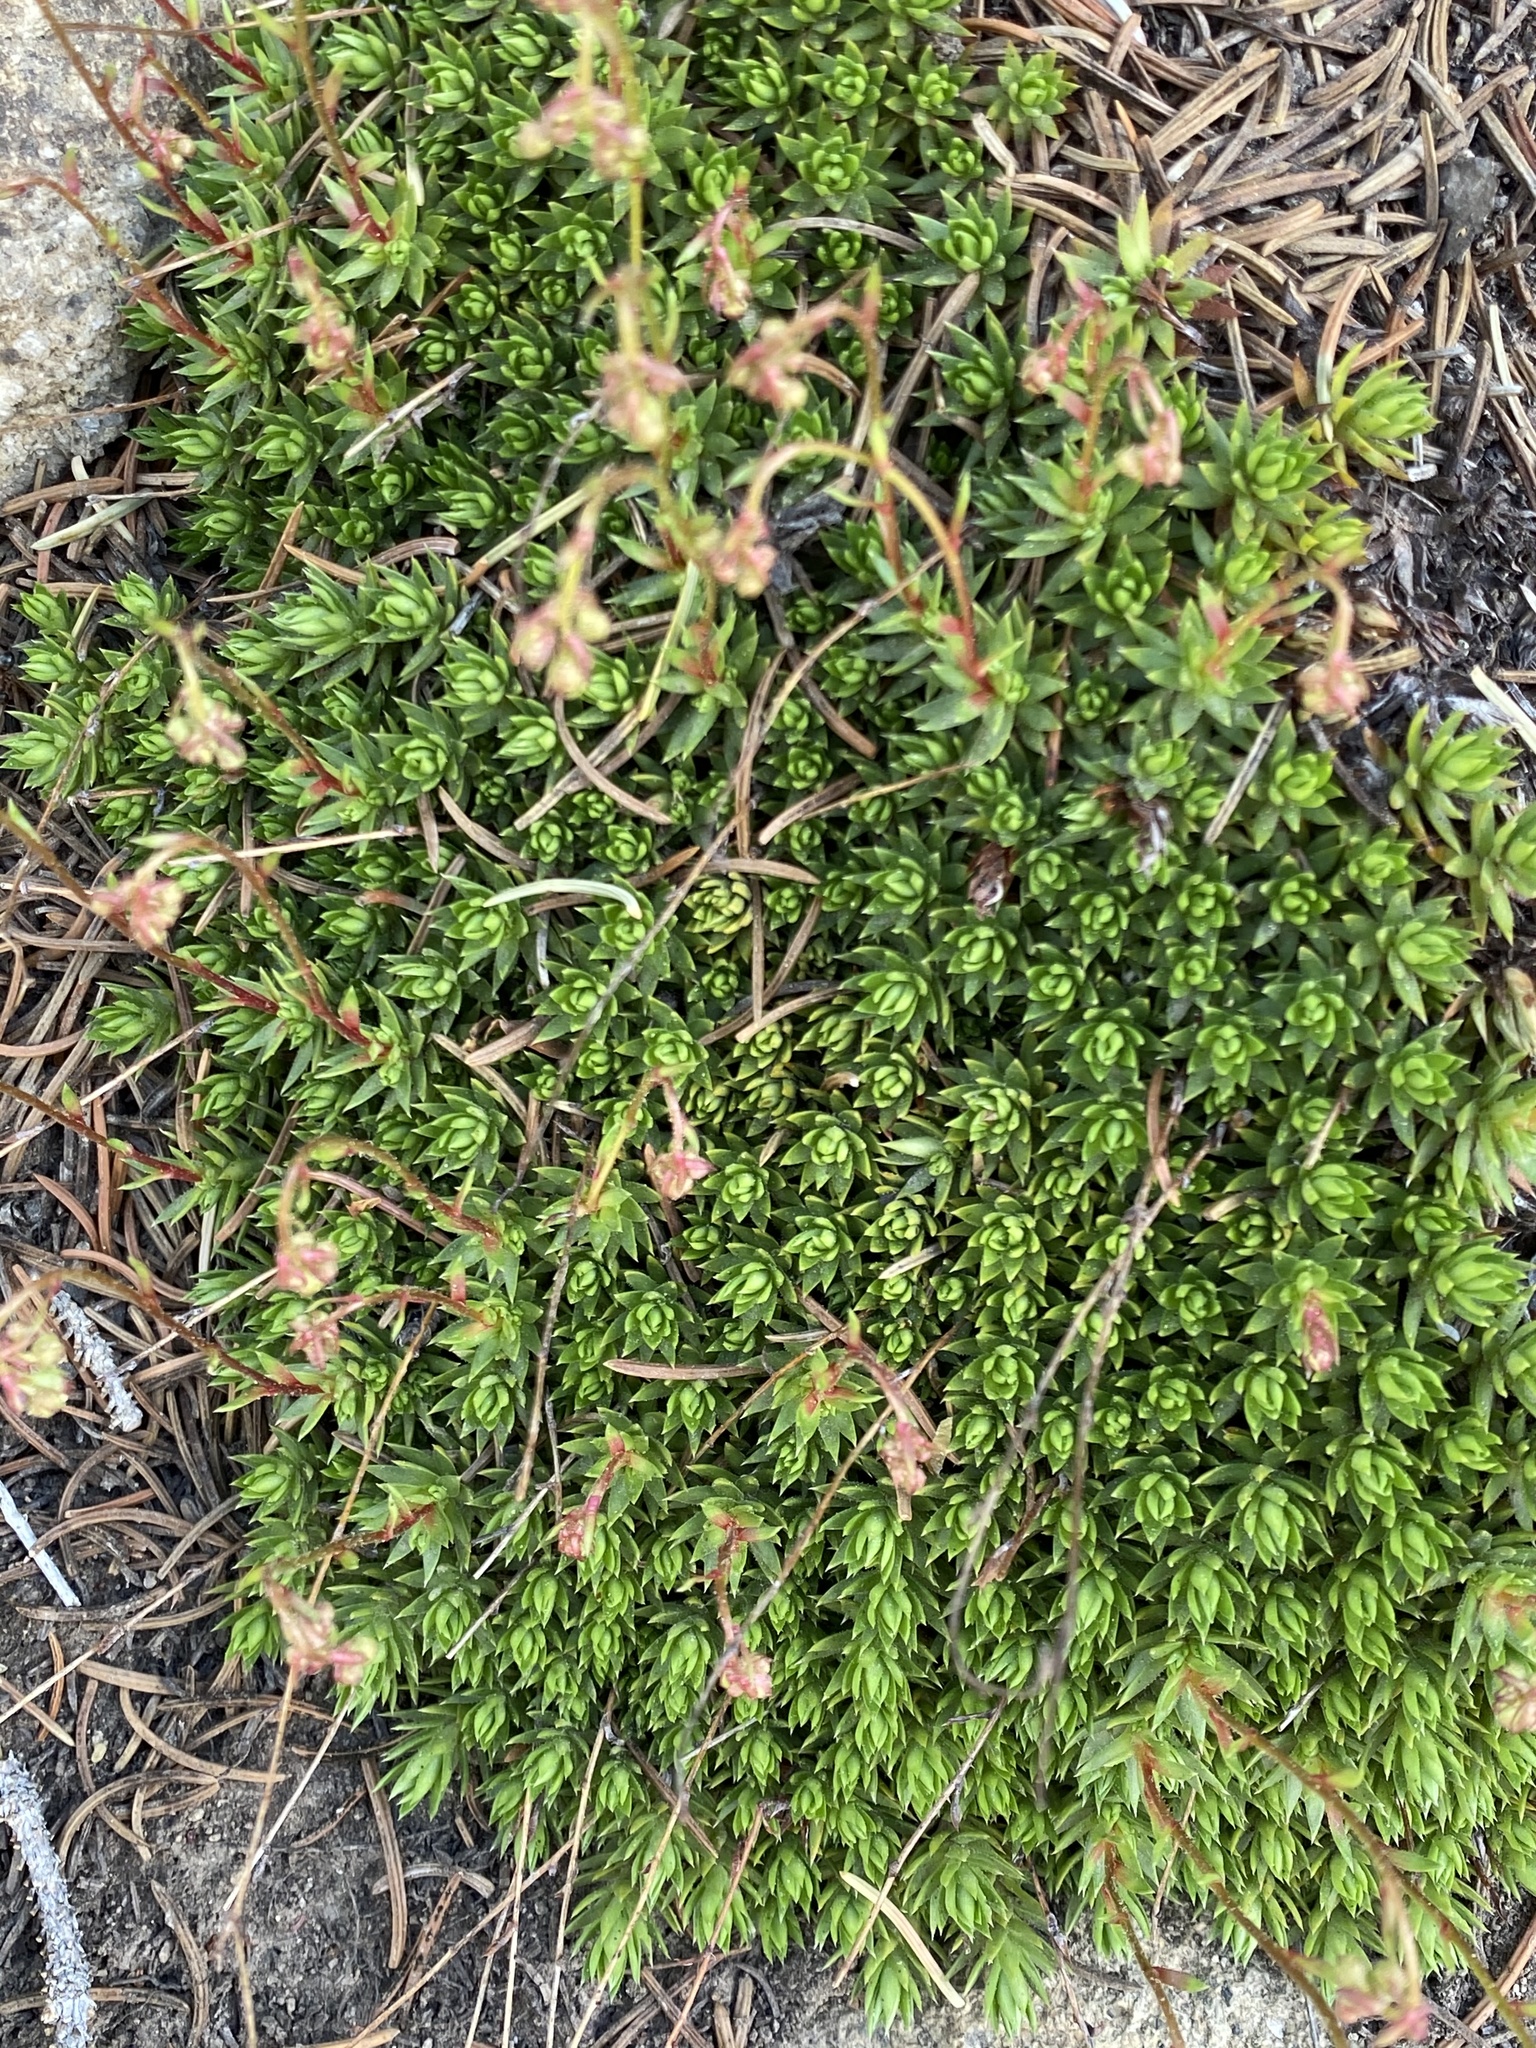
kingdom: Plantae
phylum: Tracheophyta
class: Magnoliopsida
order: Saxifragales
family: Saxifragaceae
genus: Saxifraga
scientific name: Saxifraga bronchialis
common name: Matted saxifrage
